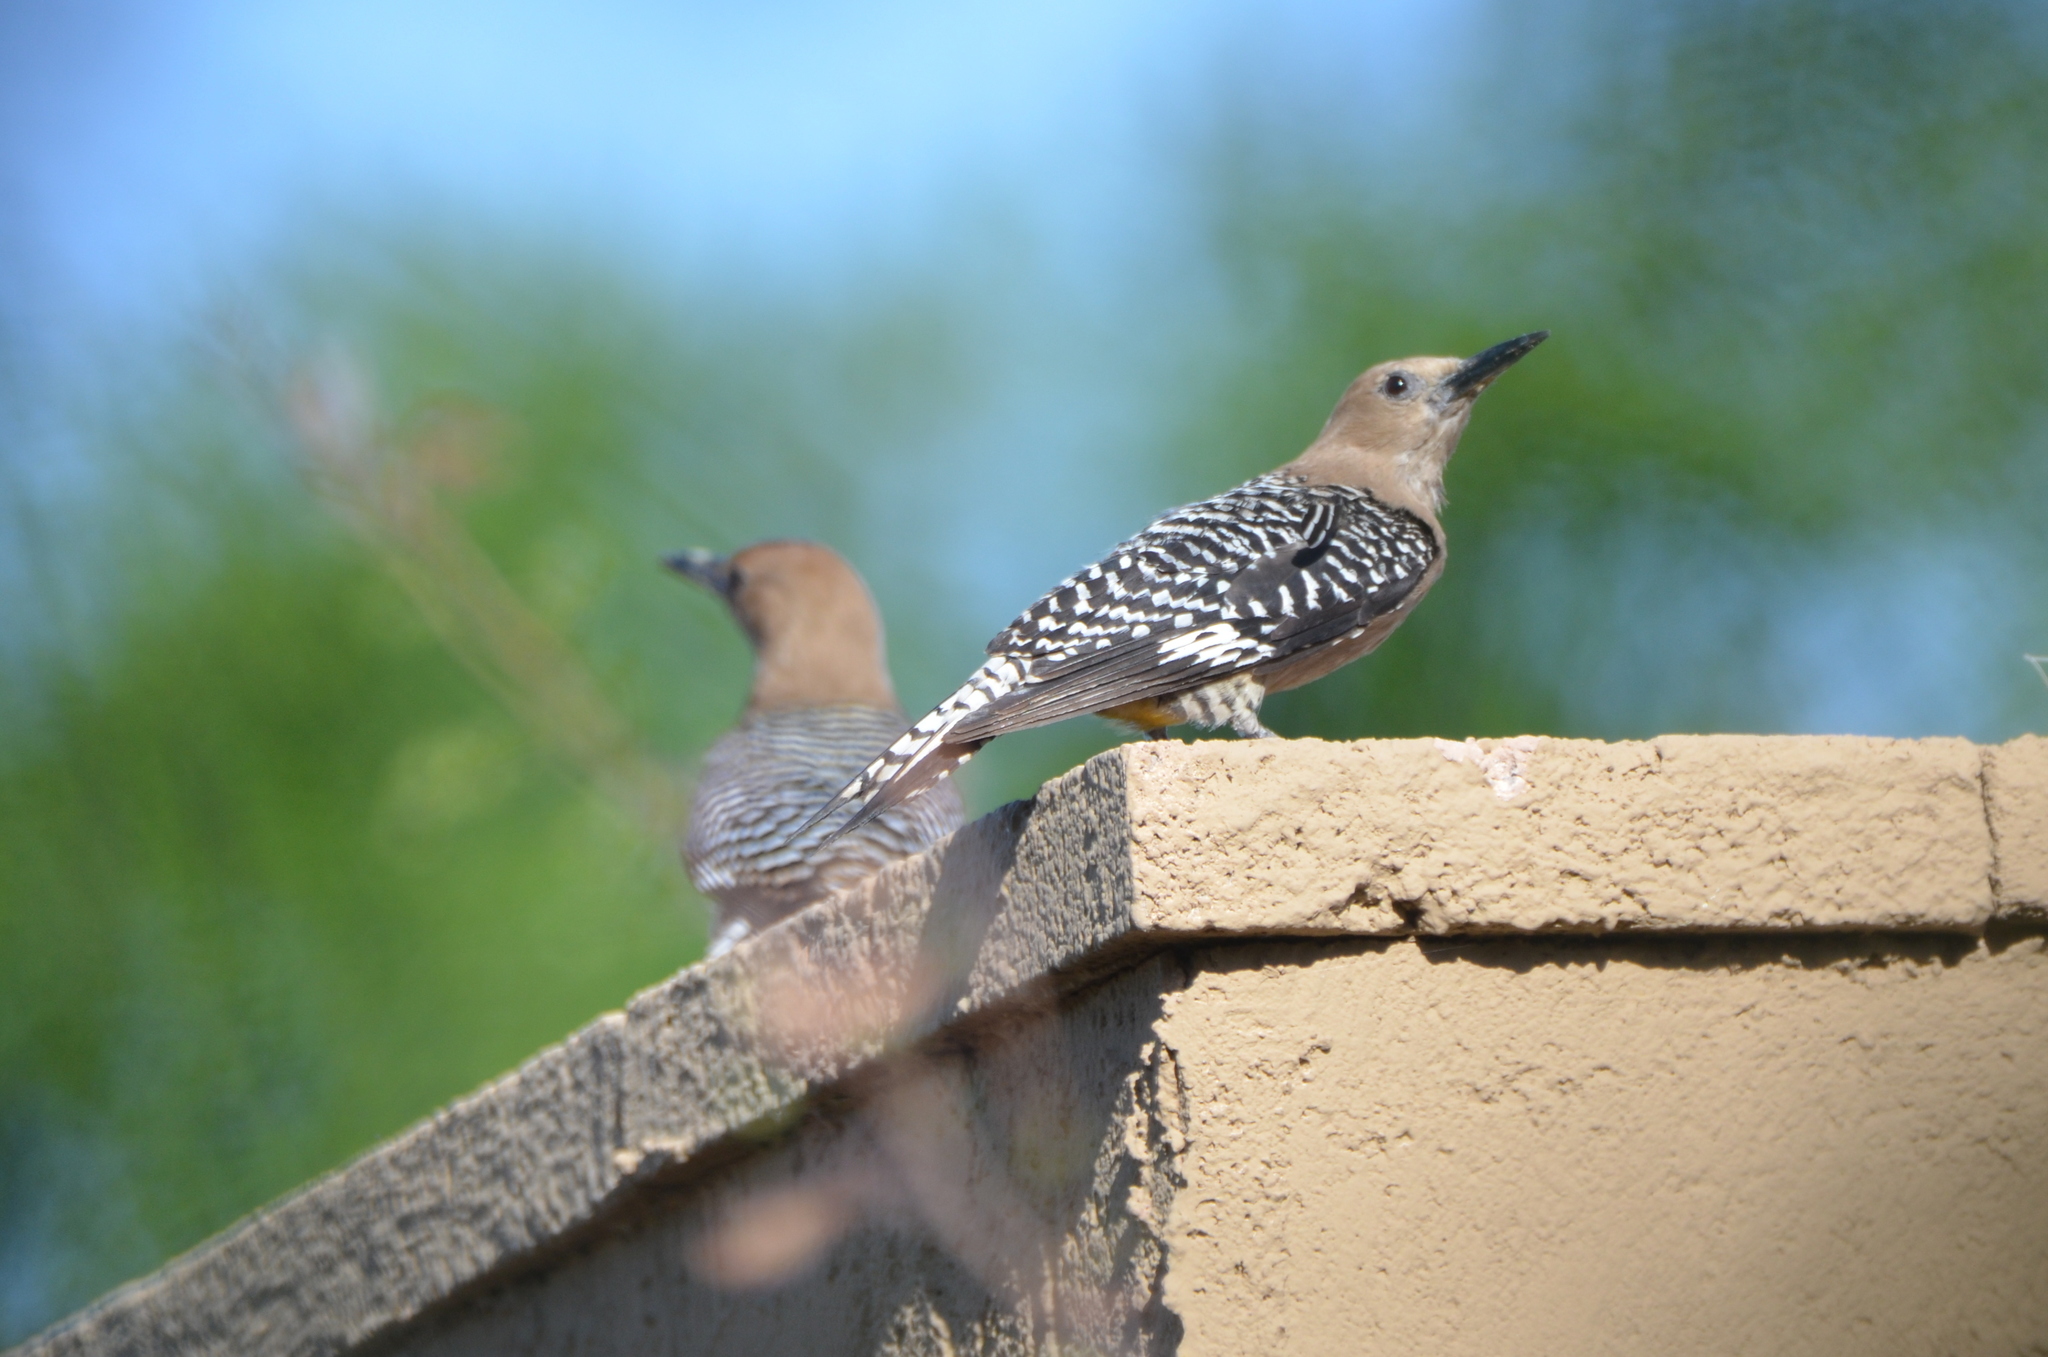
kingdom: Animalia
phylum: Chordata
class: Aves
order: Piciformes
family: Picidae
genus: Melanerpes
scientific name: Melanerpes uropygialis
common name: Gila woodpecker
